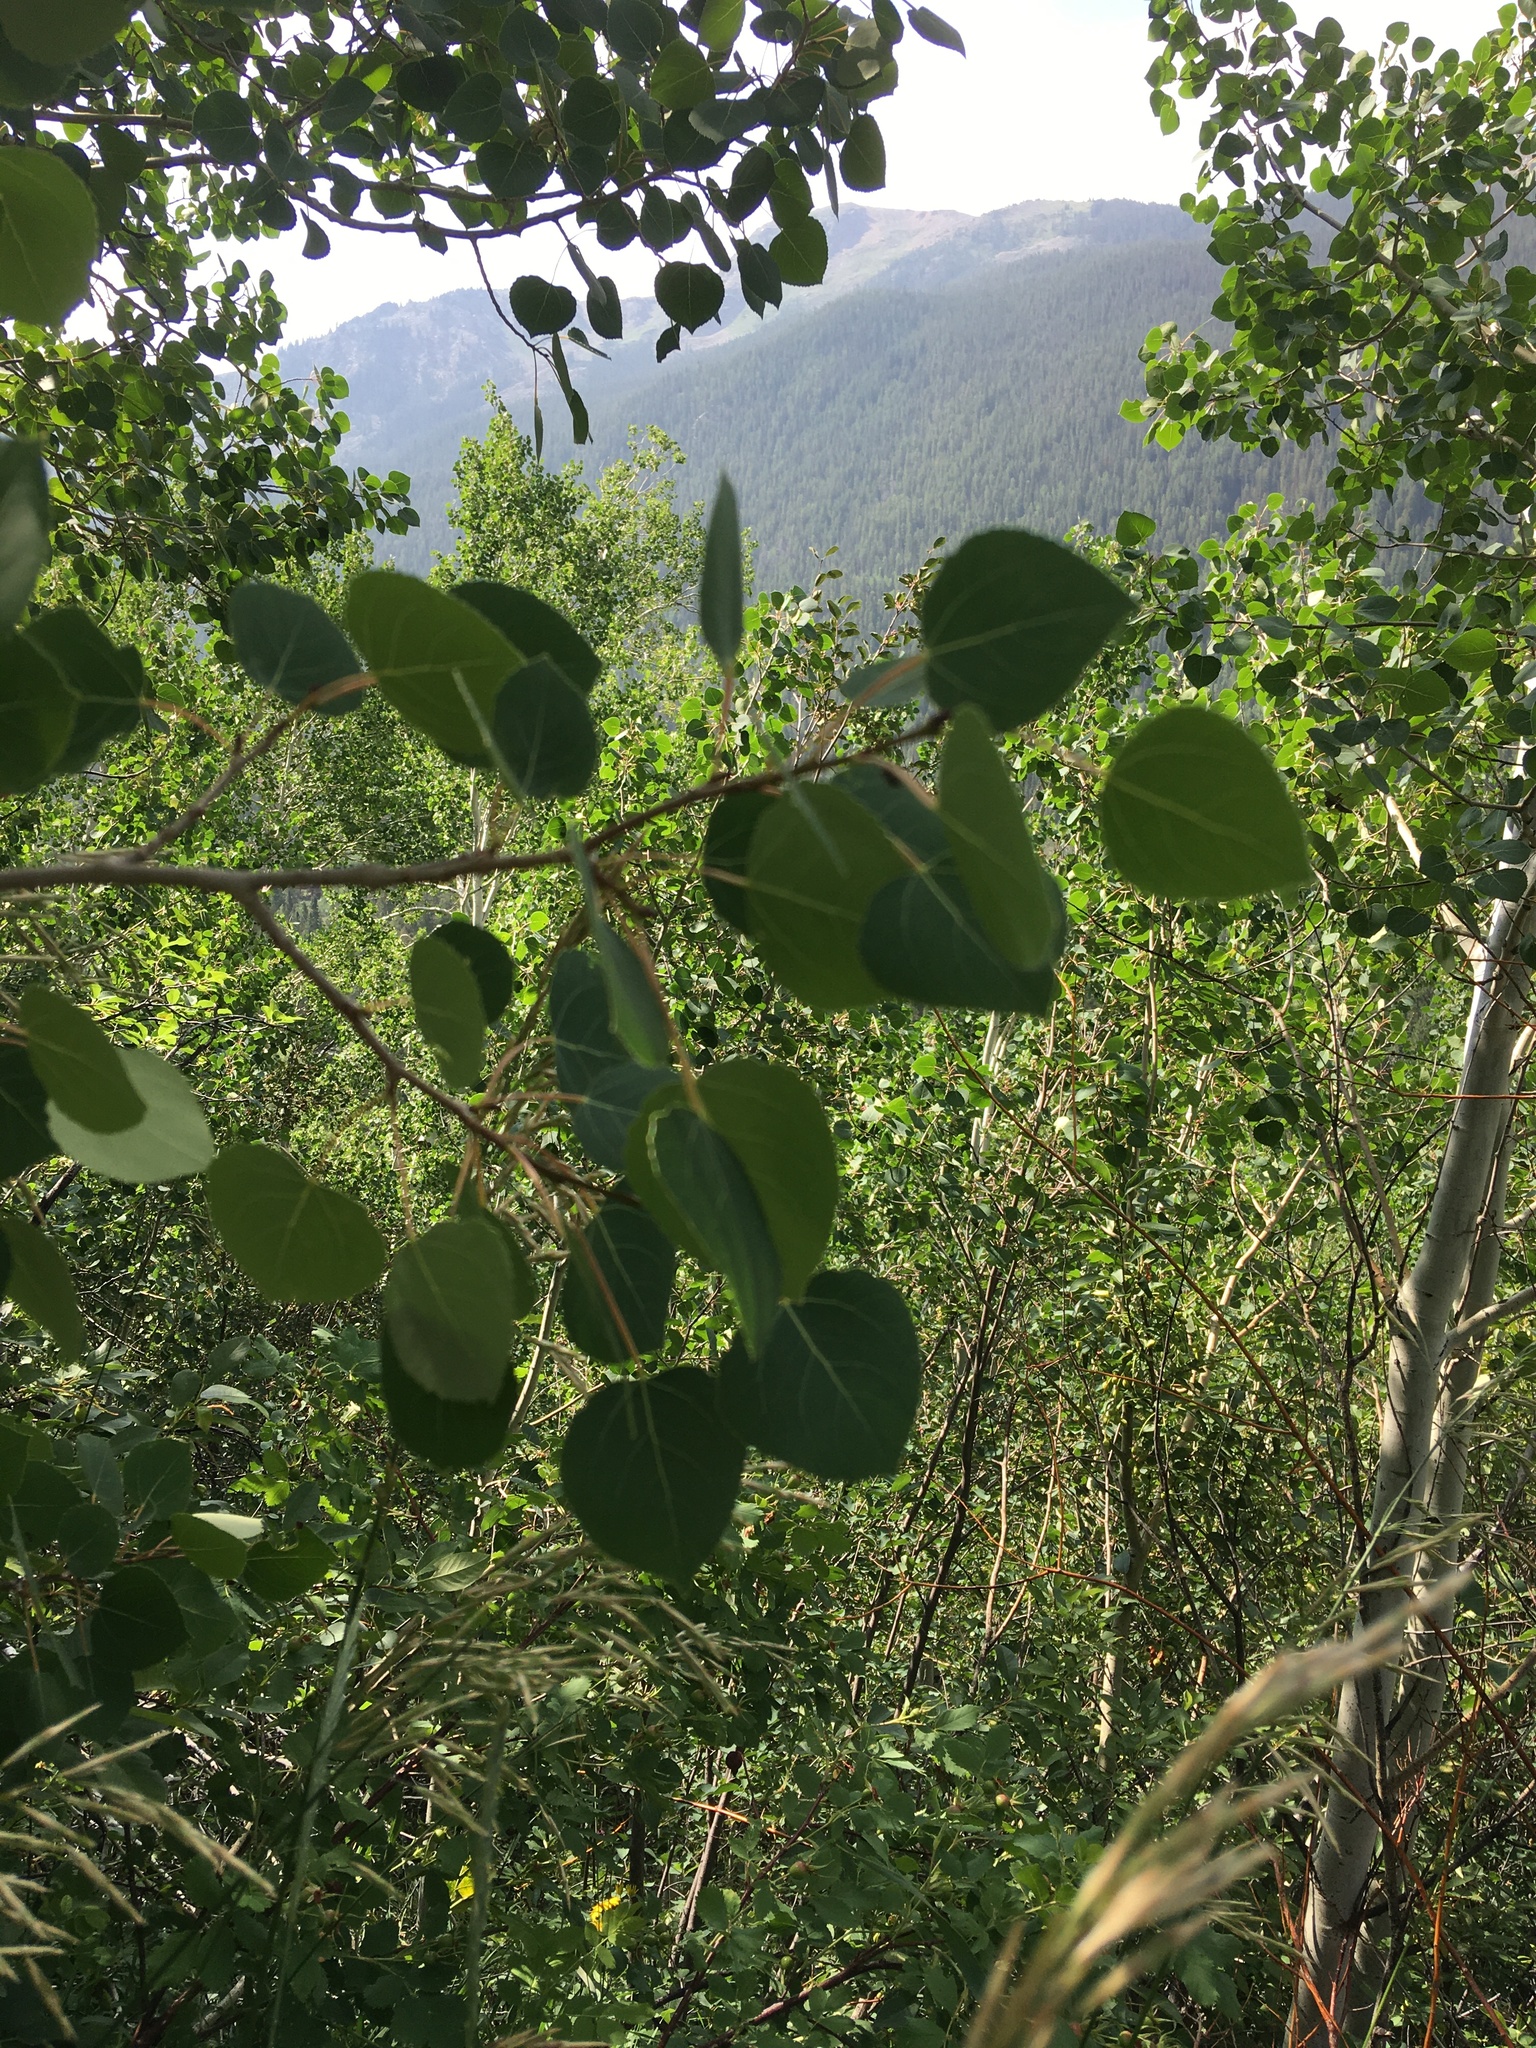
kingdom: Plantae
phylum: Tracheophyta
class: Magnoliopsida
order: Malpighiales
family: Salicaceae
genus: Populus
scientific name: Populus tremuloides
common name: Quaking aspen
